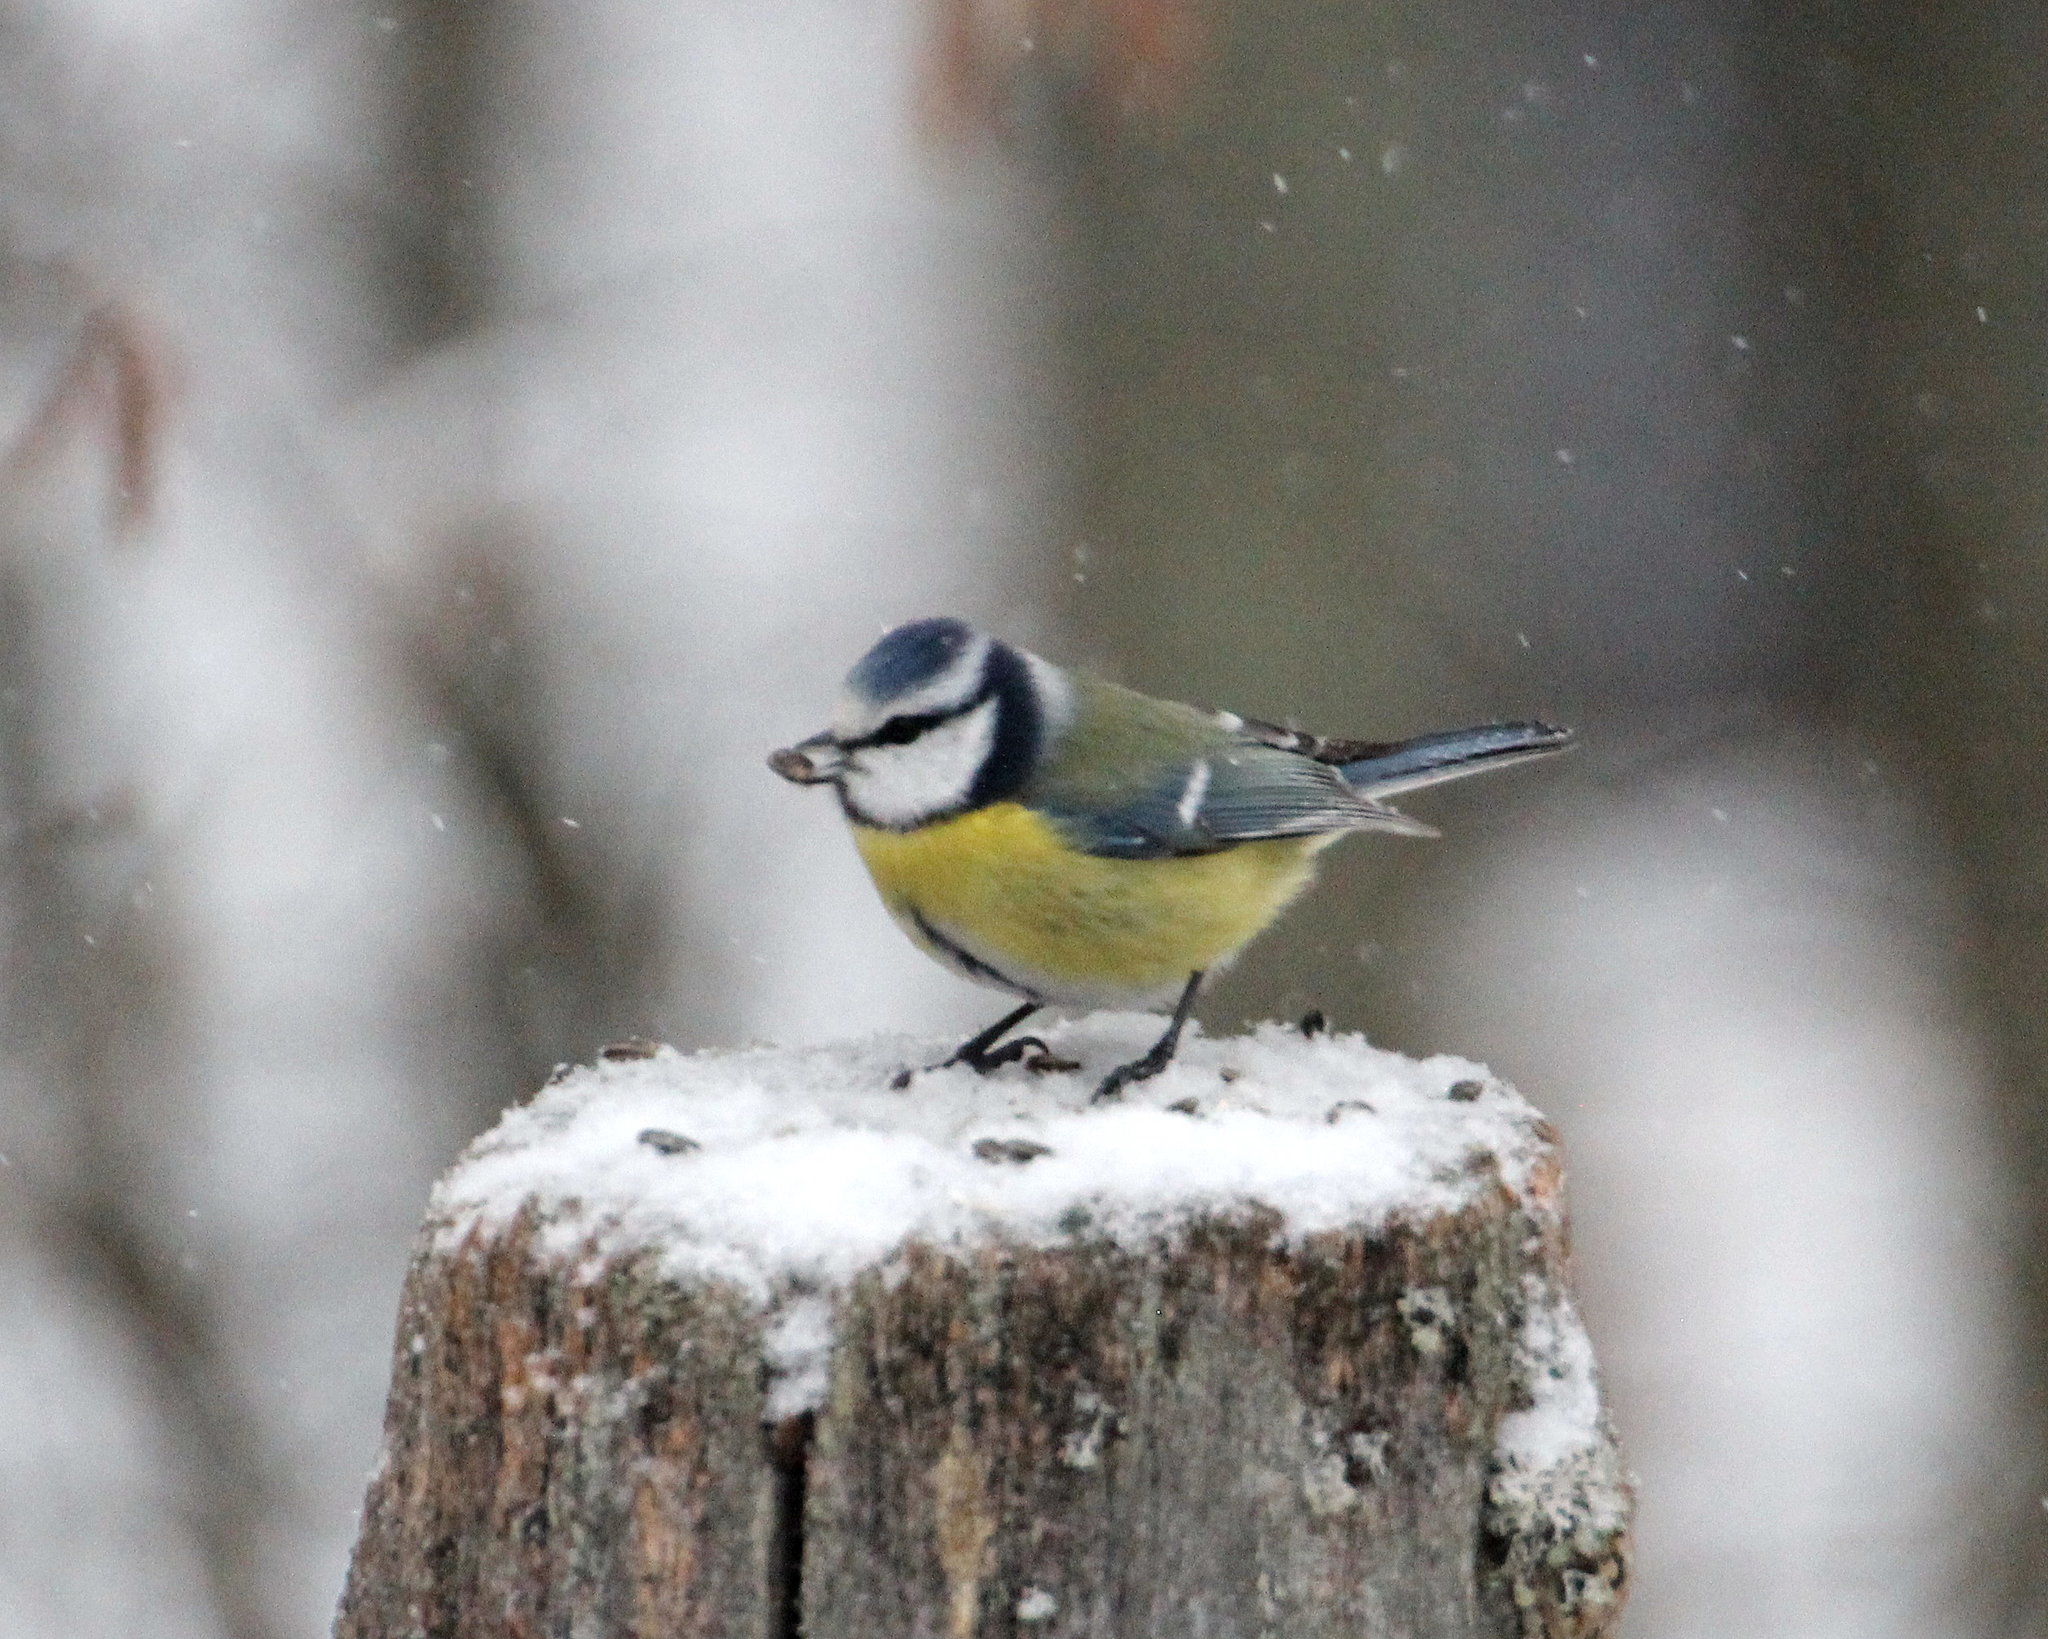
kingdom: Animalia
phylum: Chordata
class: Aves
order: Passeriformes
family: Paridae
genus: Cyanistes
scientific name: Cyanistes caeruleus
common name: Eurasian blue tit
